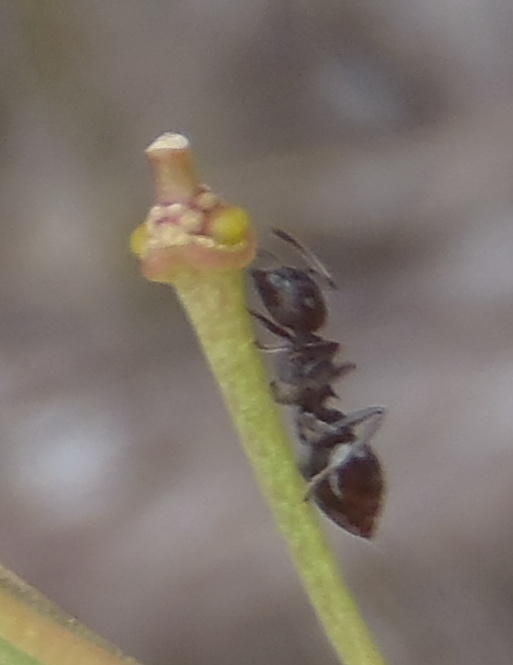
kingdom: Animalia
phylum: Arthropoda
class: Insecta
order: Hymenoptera
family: Formicidae
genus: Crematogaster
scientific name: Crematogaster peringueyi
